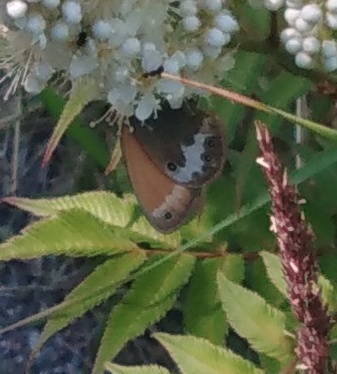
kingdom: Animalia
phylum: Arthropoda
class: Insecta
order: Lepidoptera
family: Nymphalidae
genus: Coenonympha
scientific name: Coenonympha arcania
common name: Pearly heath
